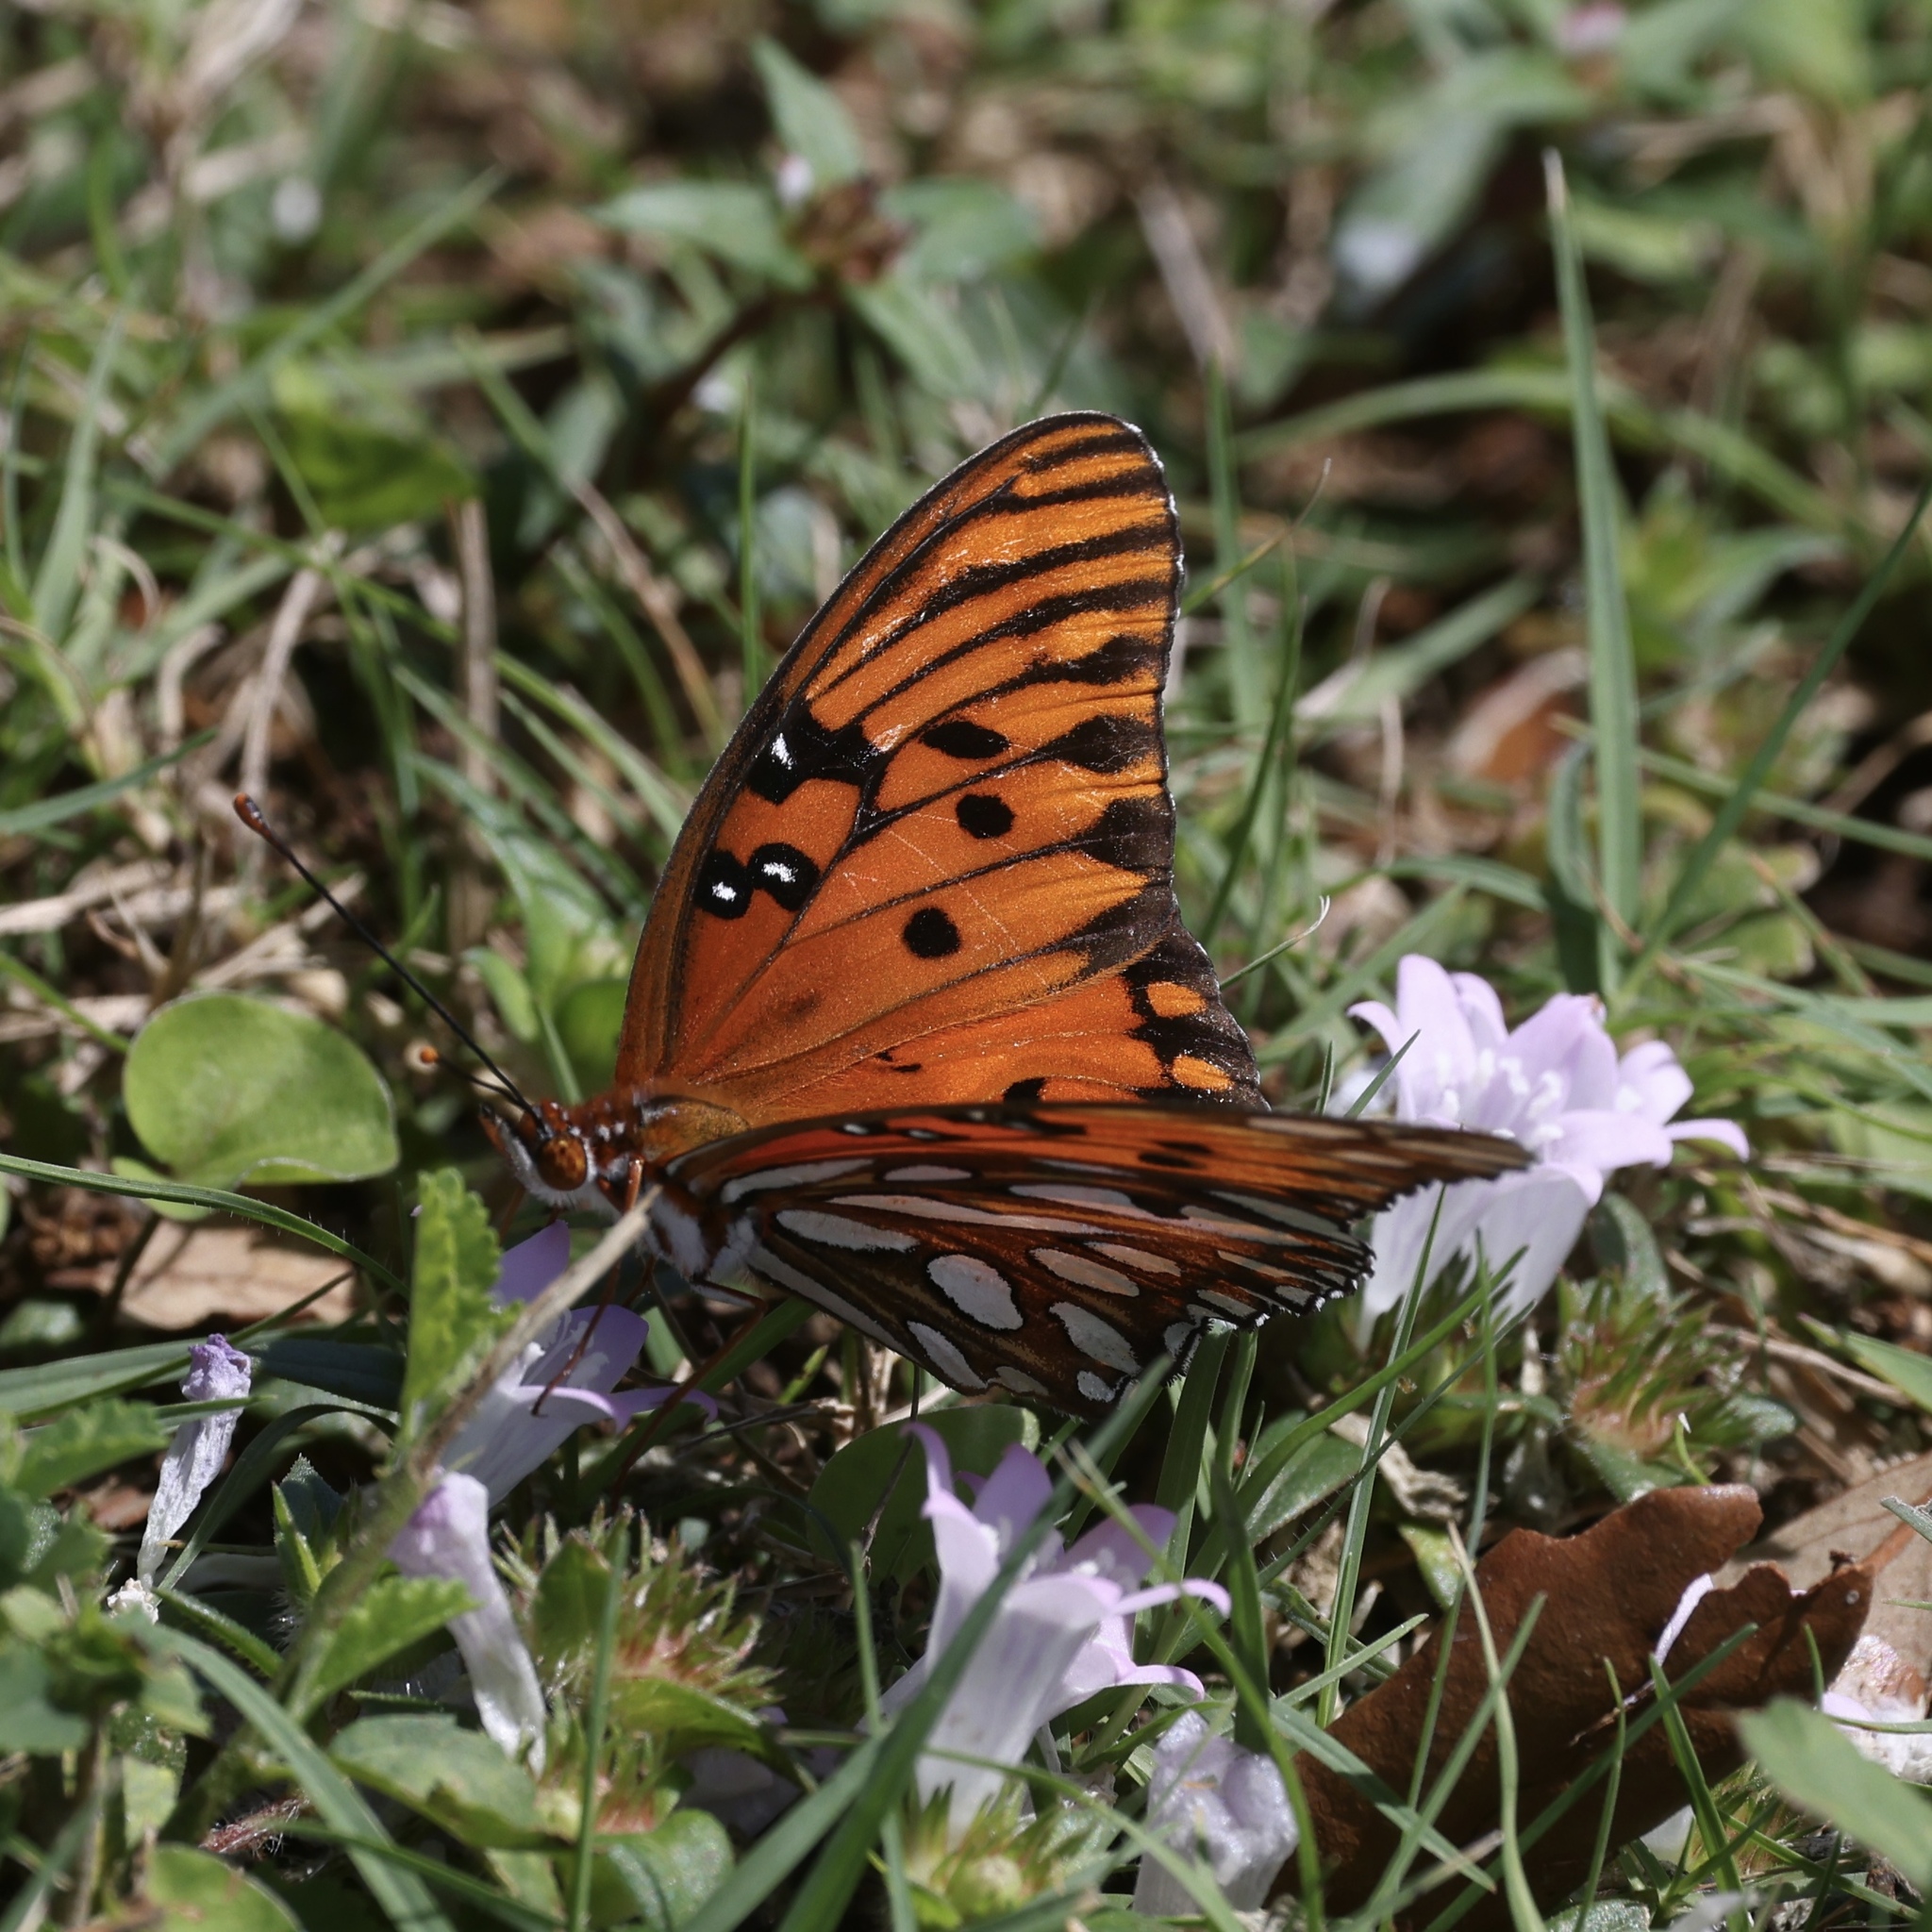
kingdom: Animalia
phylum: Arthropoda
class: Insecta
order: Lepidoptera
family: Nymphalidae
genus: Dione
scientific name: Dione vanillae
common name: Gulf fritillary
